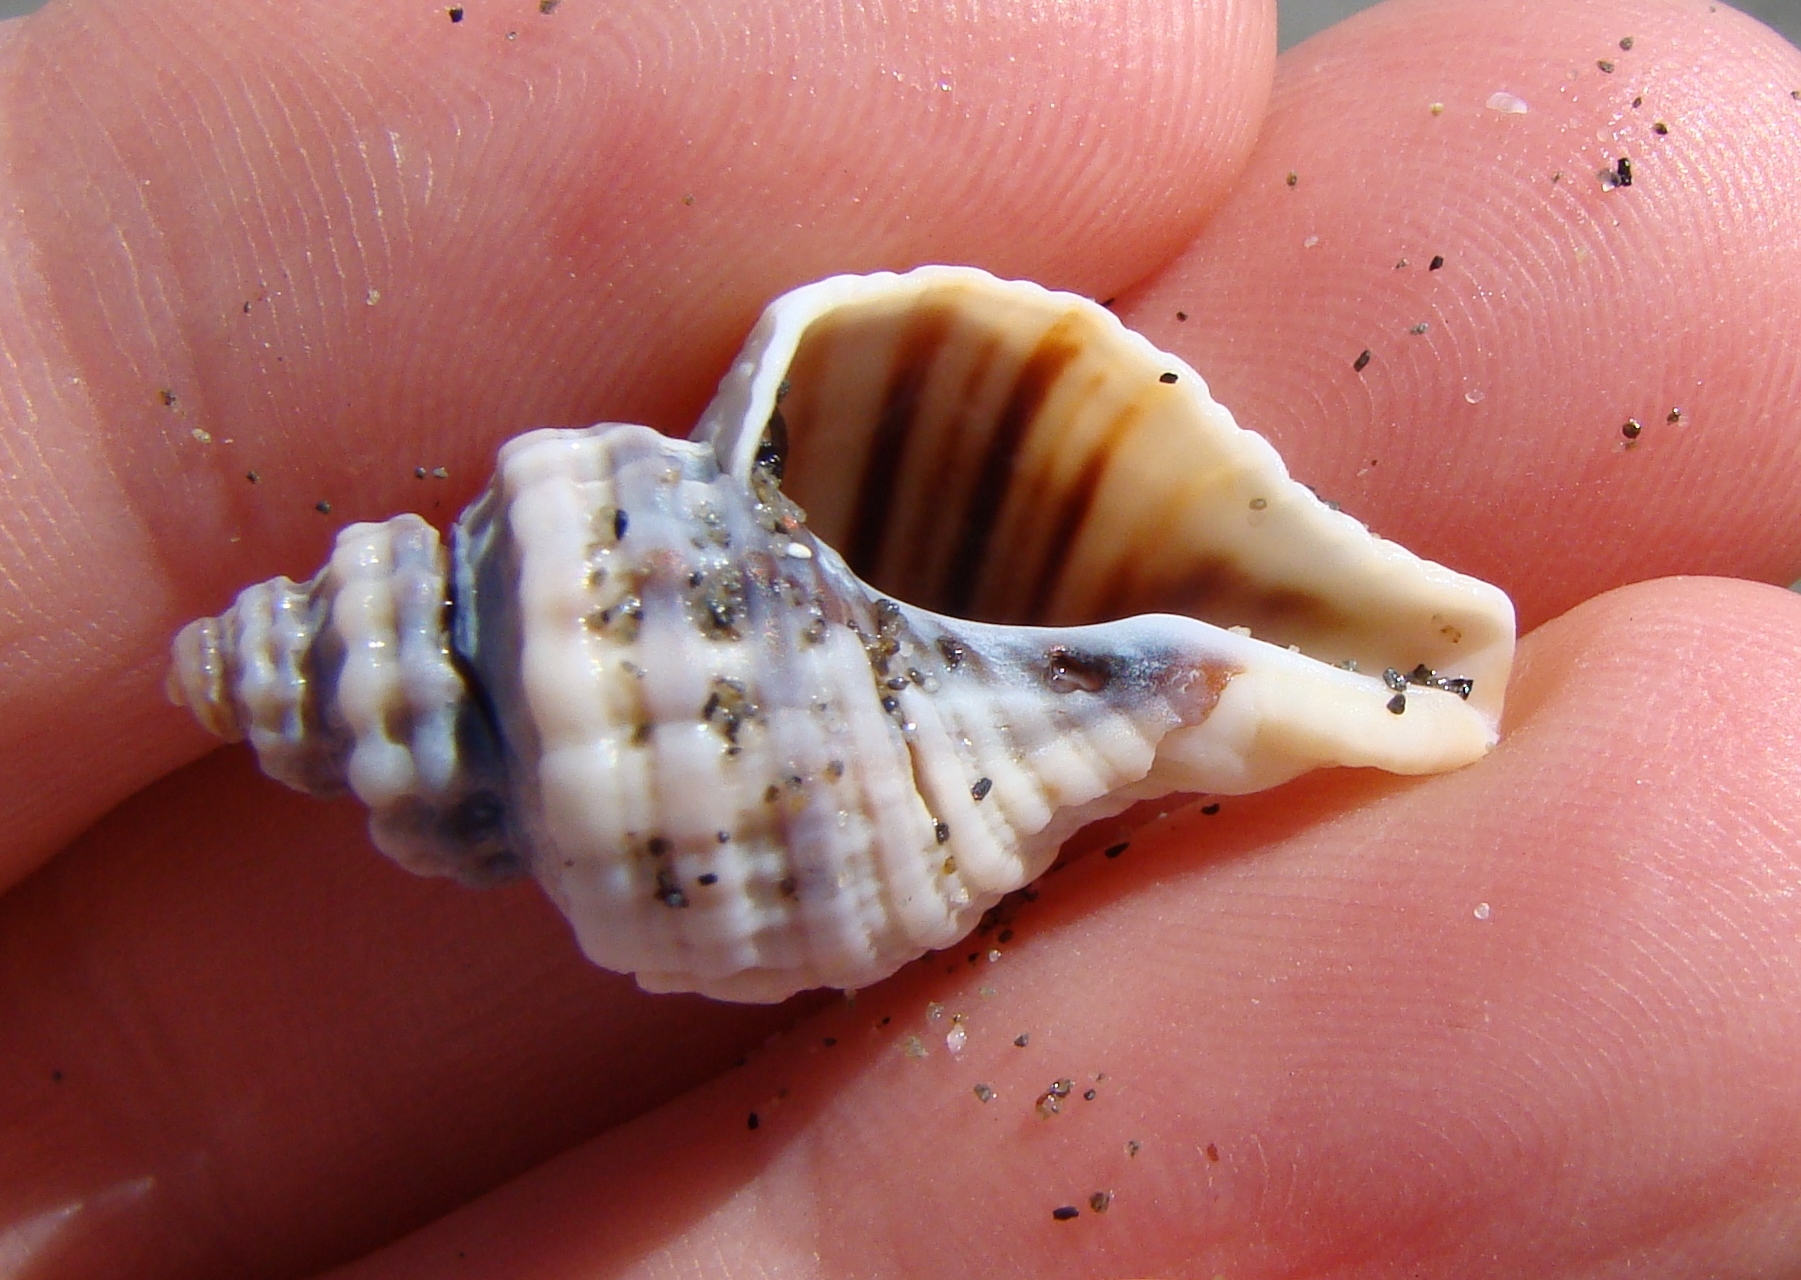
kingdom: Animalia
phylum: Mollusca
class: Gastropoda
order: Neogastropoda
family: Muricidae
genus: Zeatrophon
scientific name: Zeatrophon ambiguus
